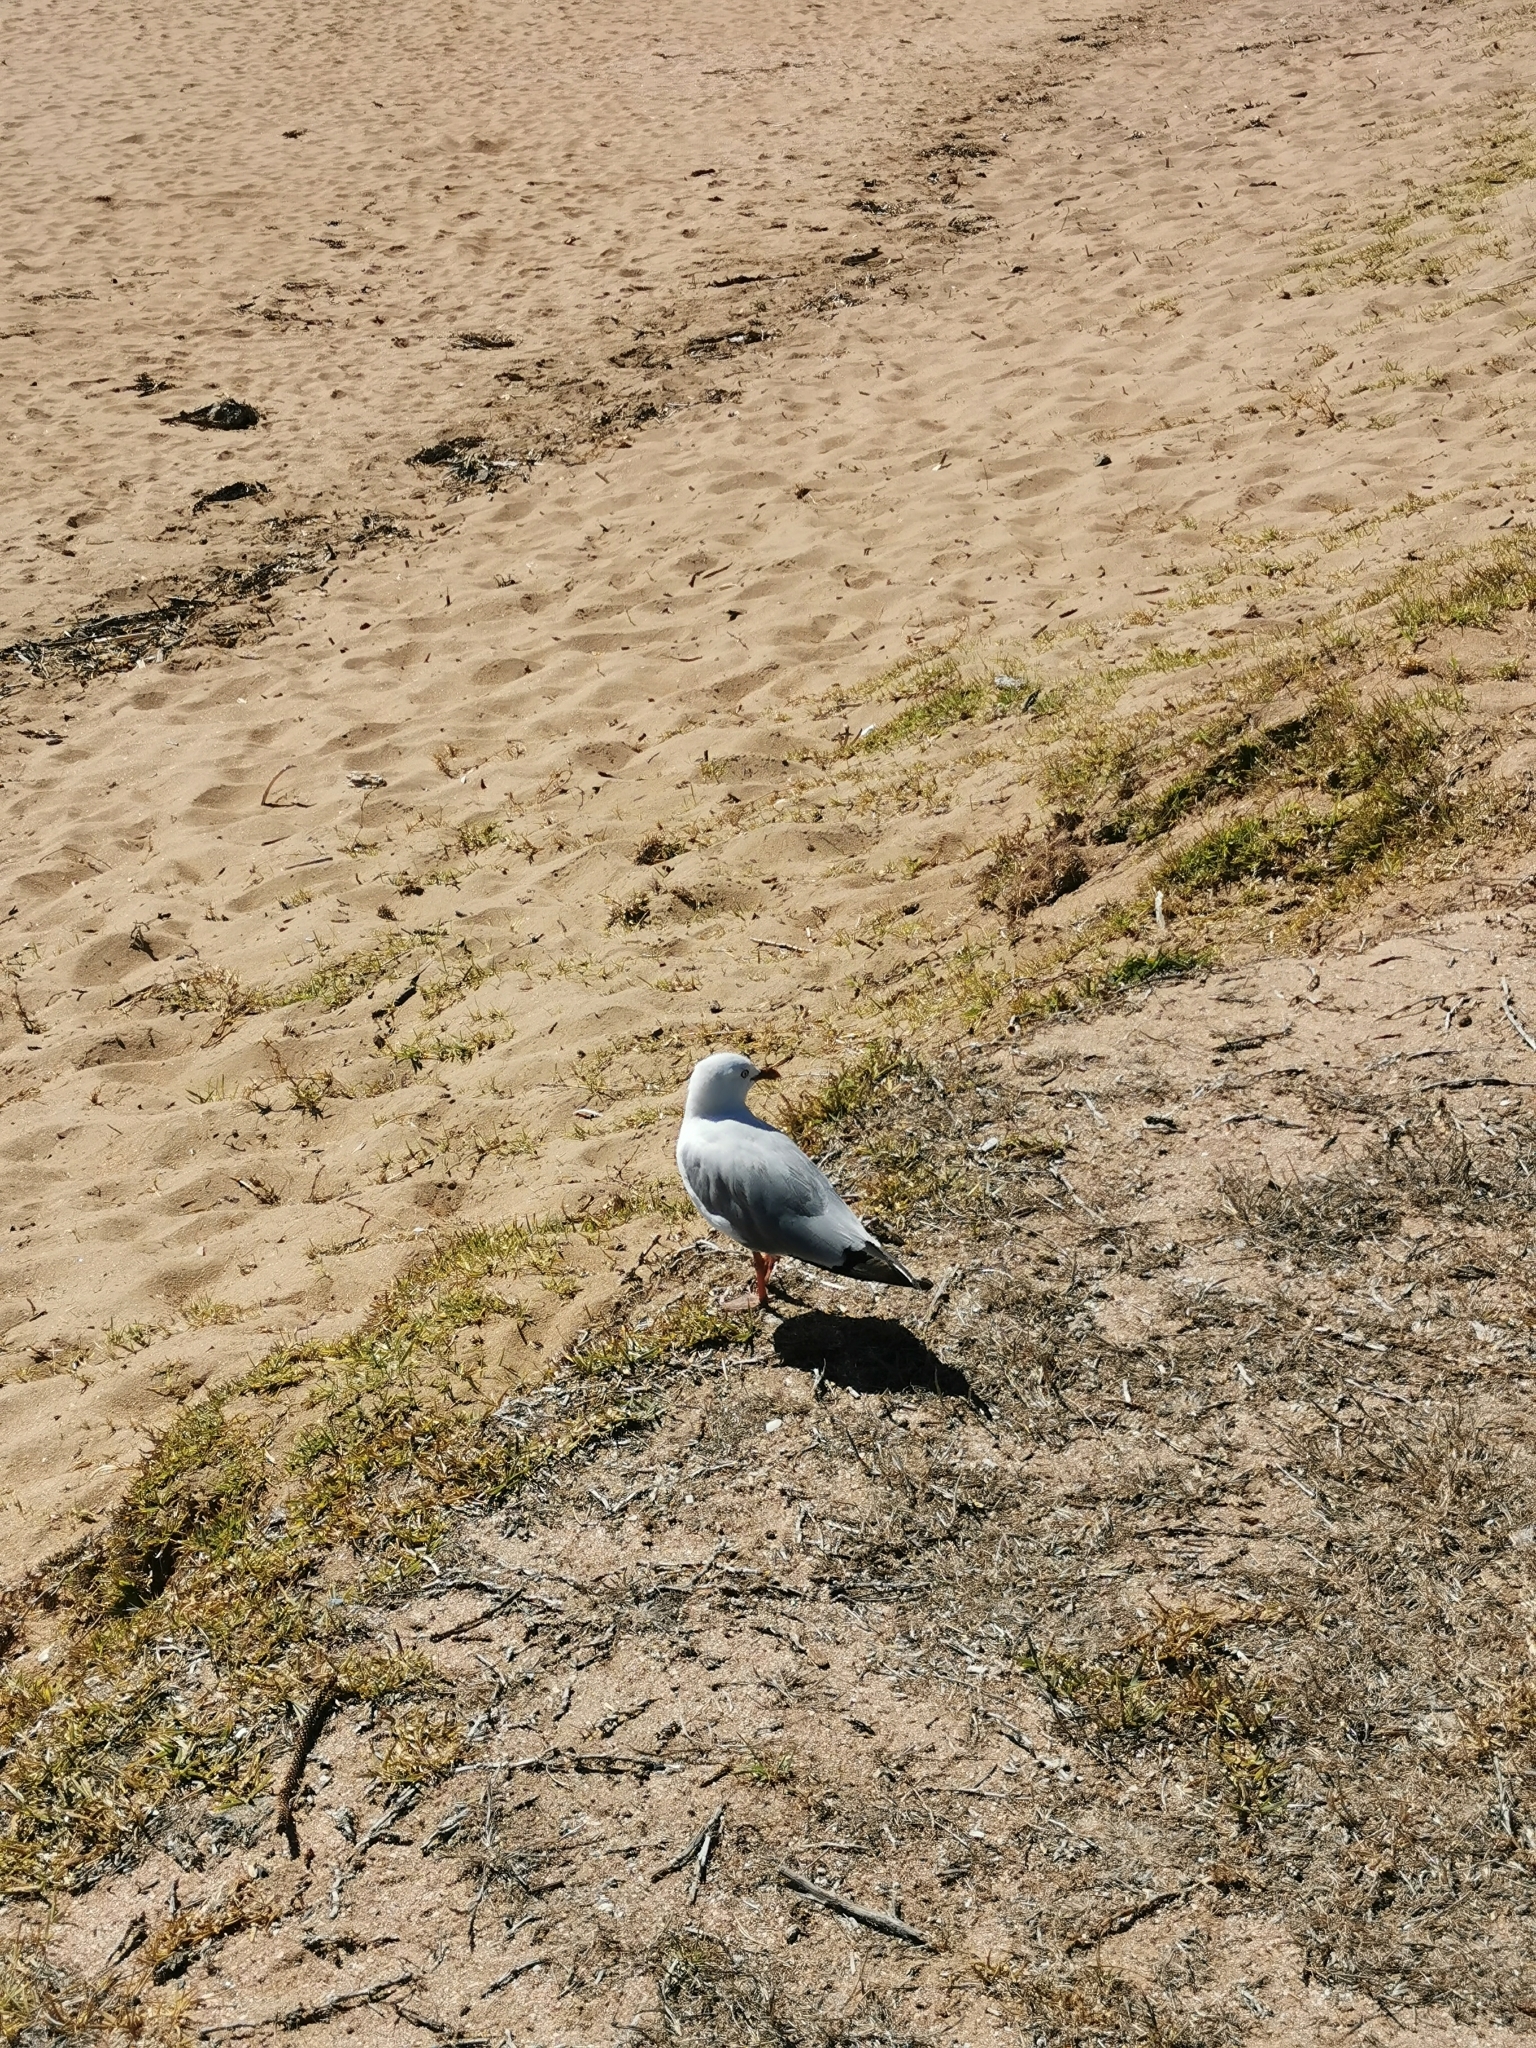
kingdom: Animalia
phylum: Chordata
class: Aves
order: Charadriiformes
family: Laridae
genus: Chroicocephalus
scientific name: Chroicocephalus novaehollandiae
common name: Silver gull
